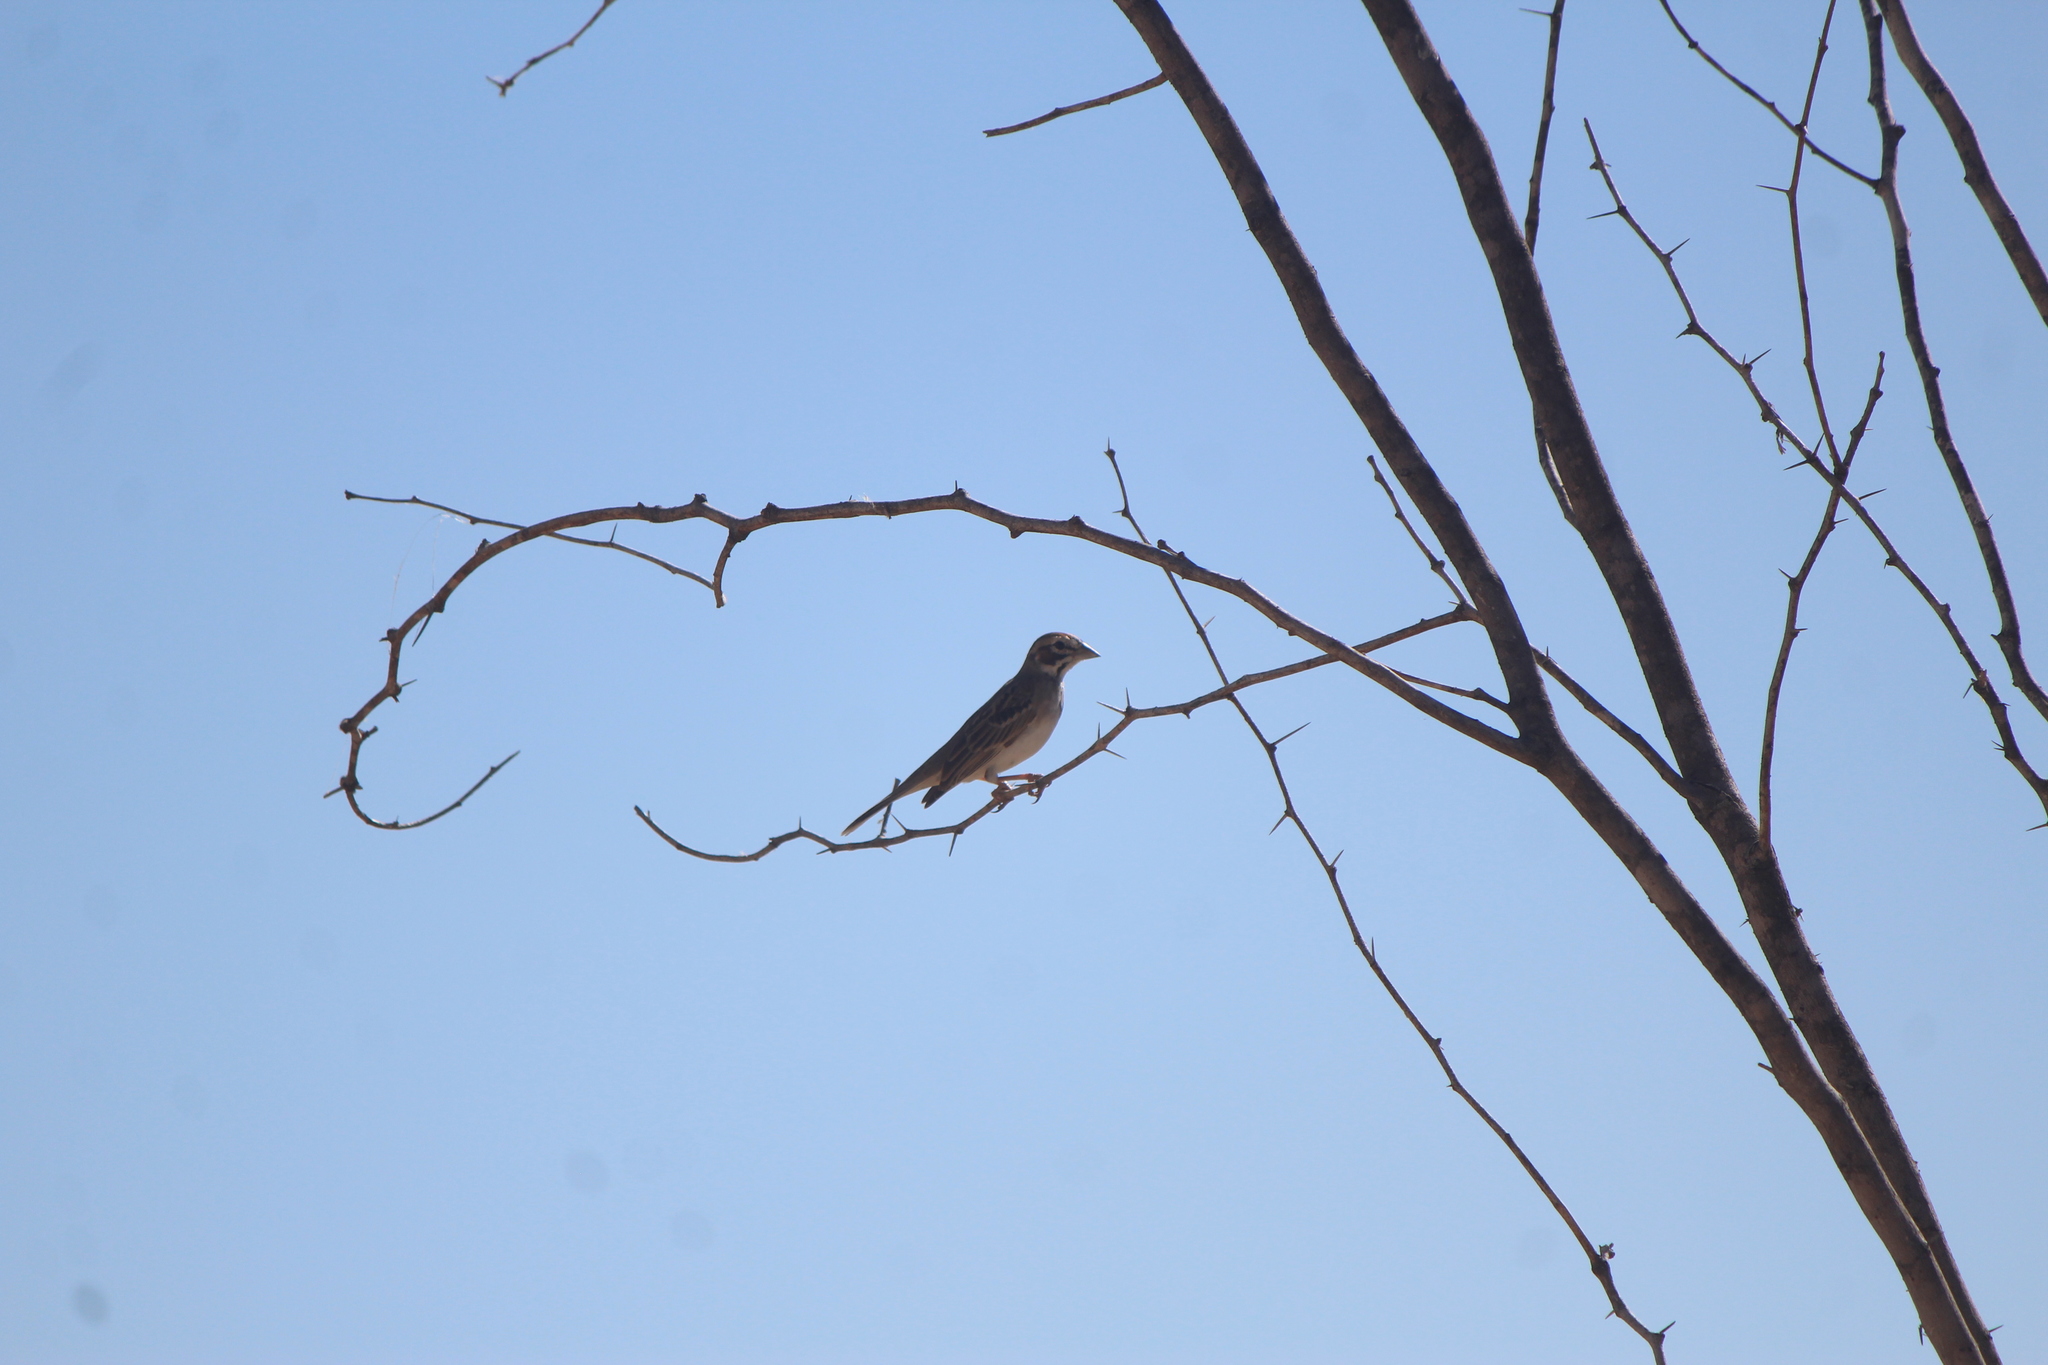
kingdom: Animalia
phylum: Chordata
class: Aves
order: Passeriformes
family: Passerellidae
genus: Chondestes
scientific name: Chondestes grammacus
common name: Lark sparrow
